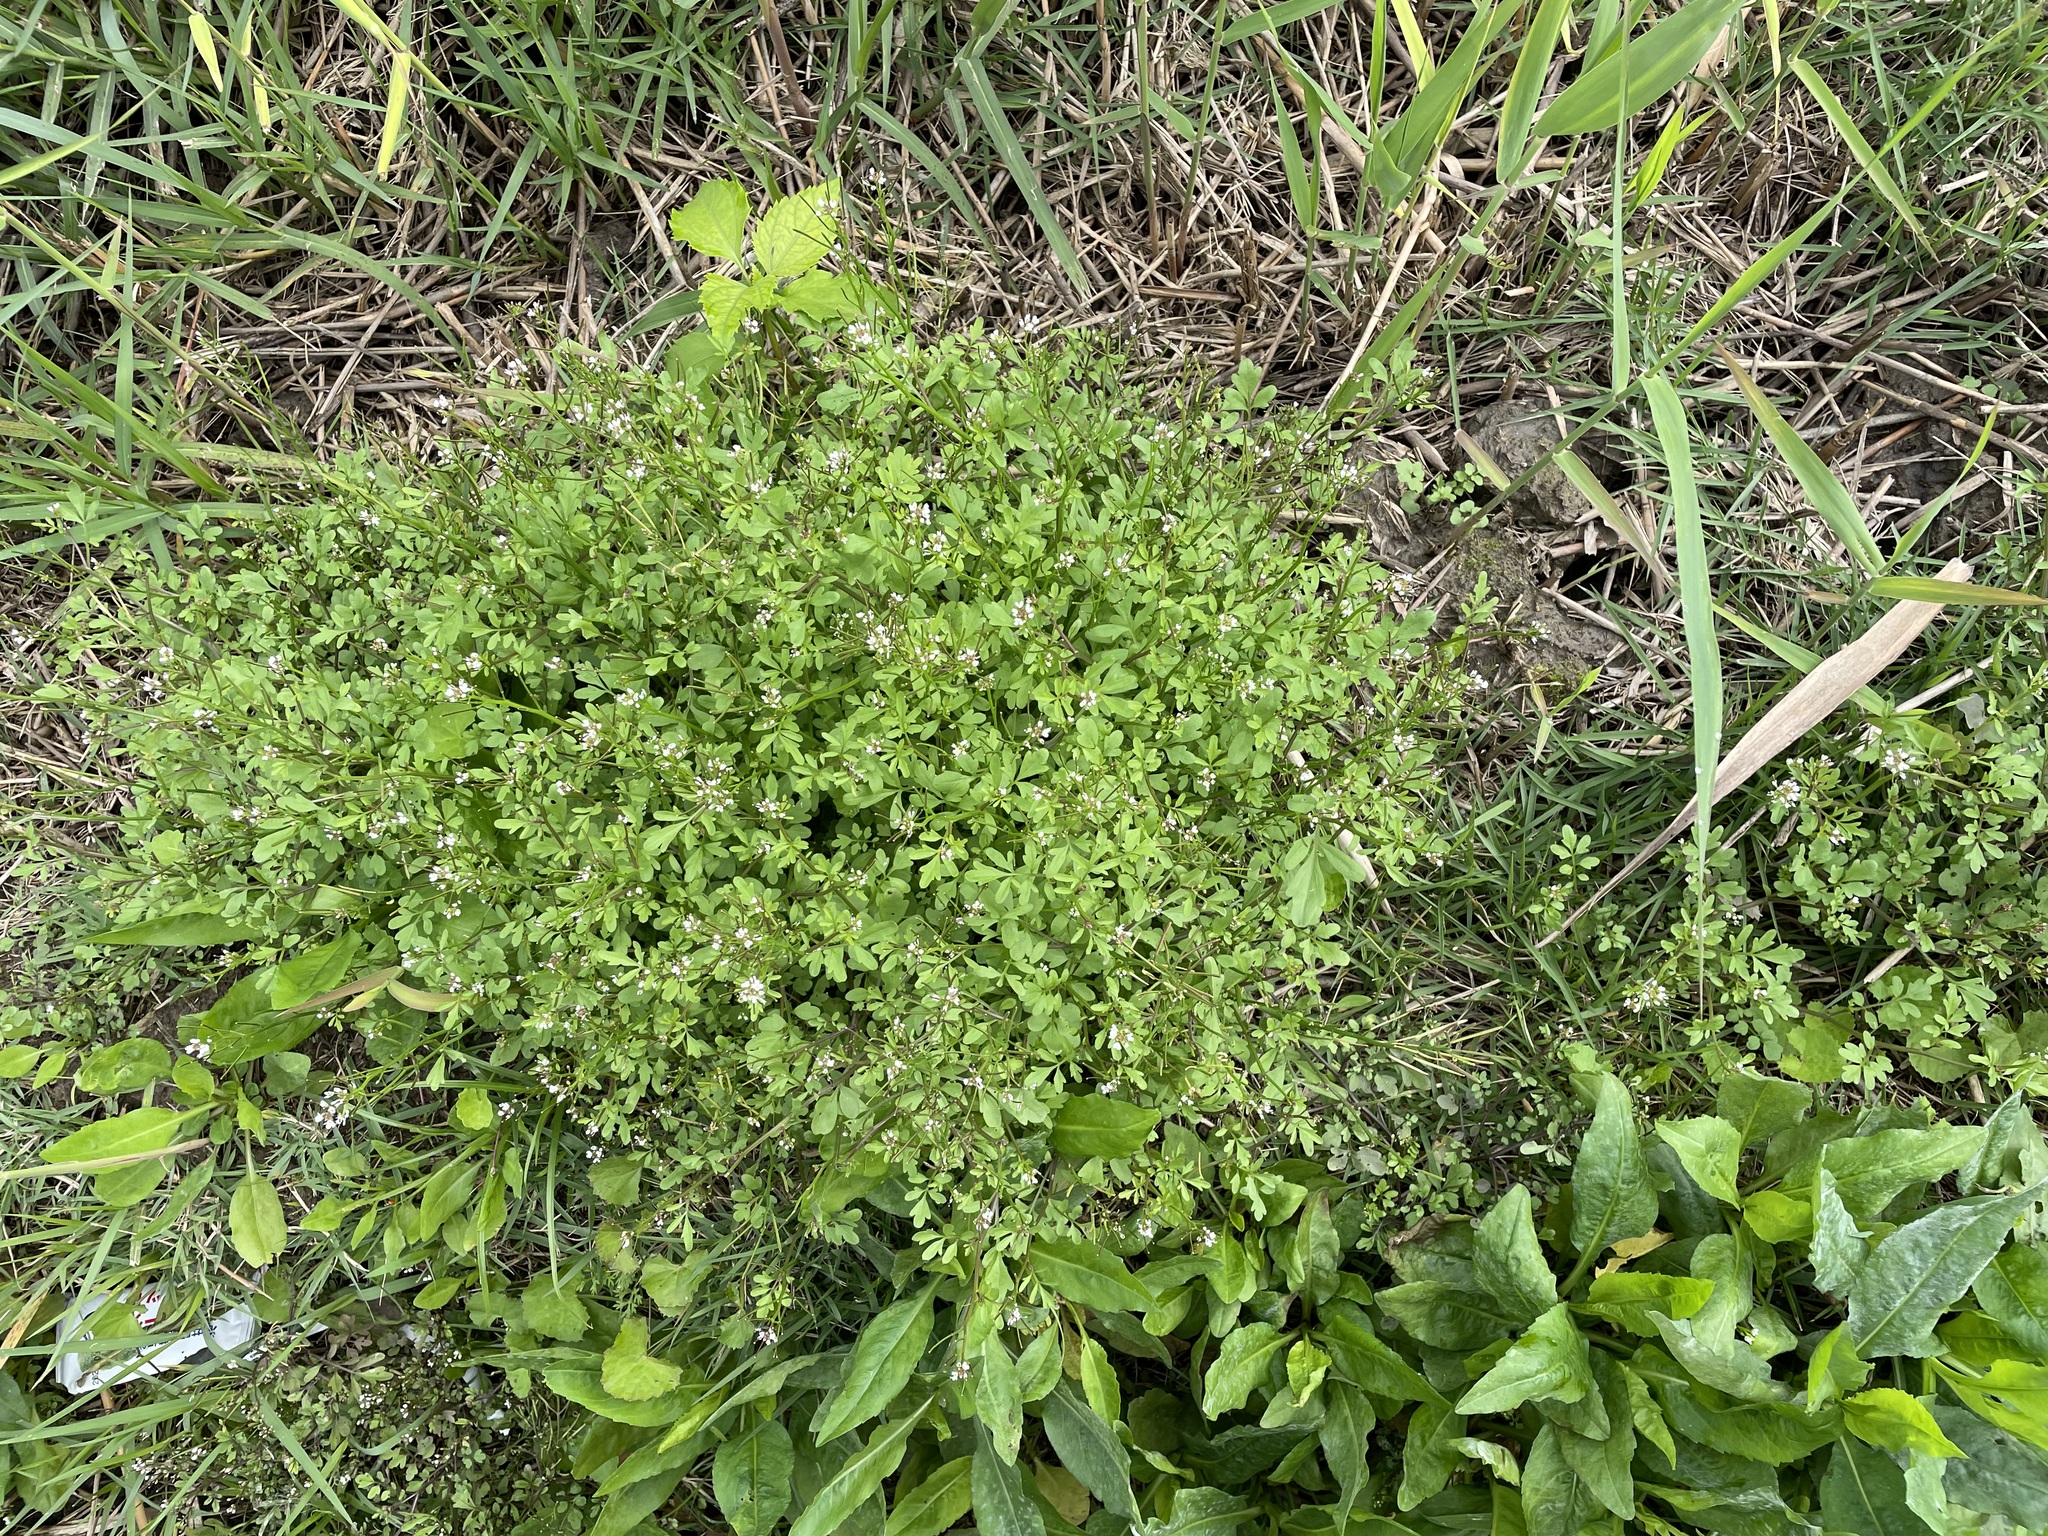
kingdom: Plantae
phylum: Tracheophyta
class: Magnoliopsida
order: Brassicales
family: Brassicaceae
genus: Cardamine
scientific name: Cardamine flexuosa
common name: Woodland bittercress
